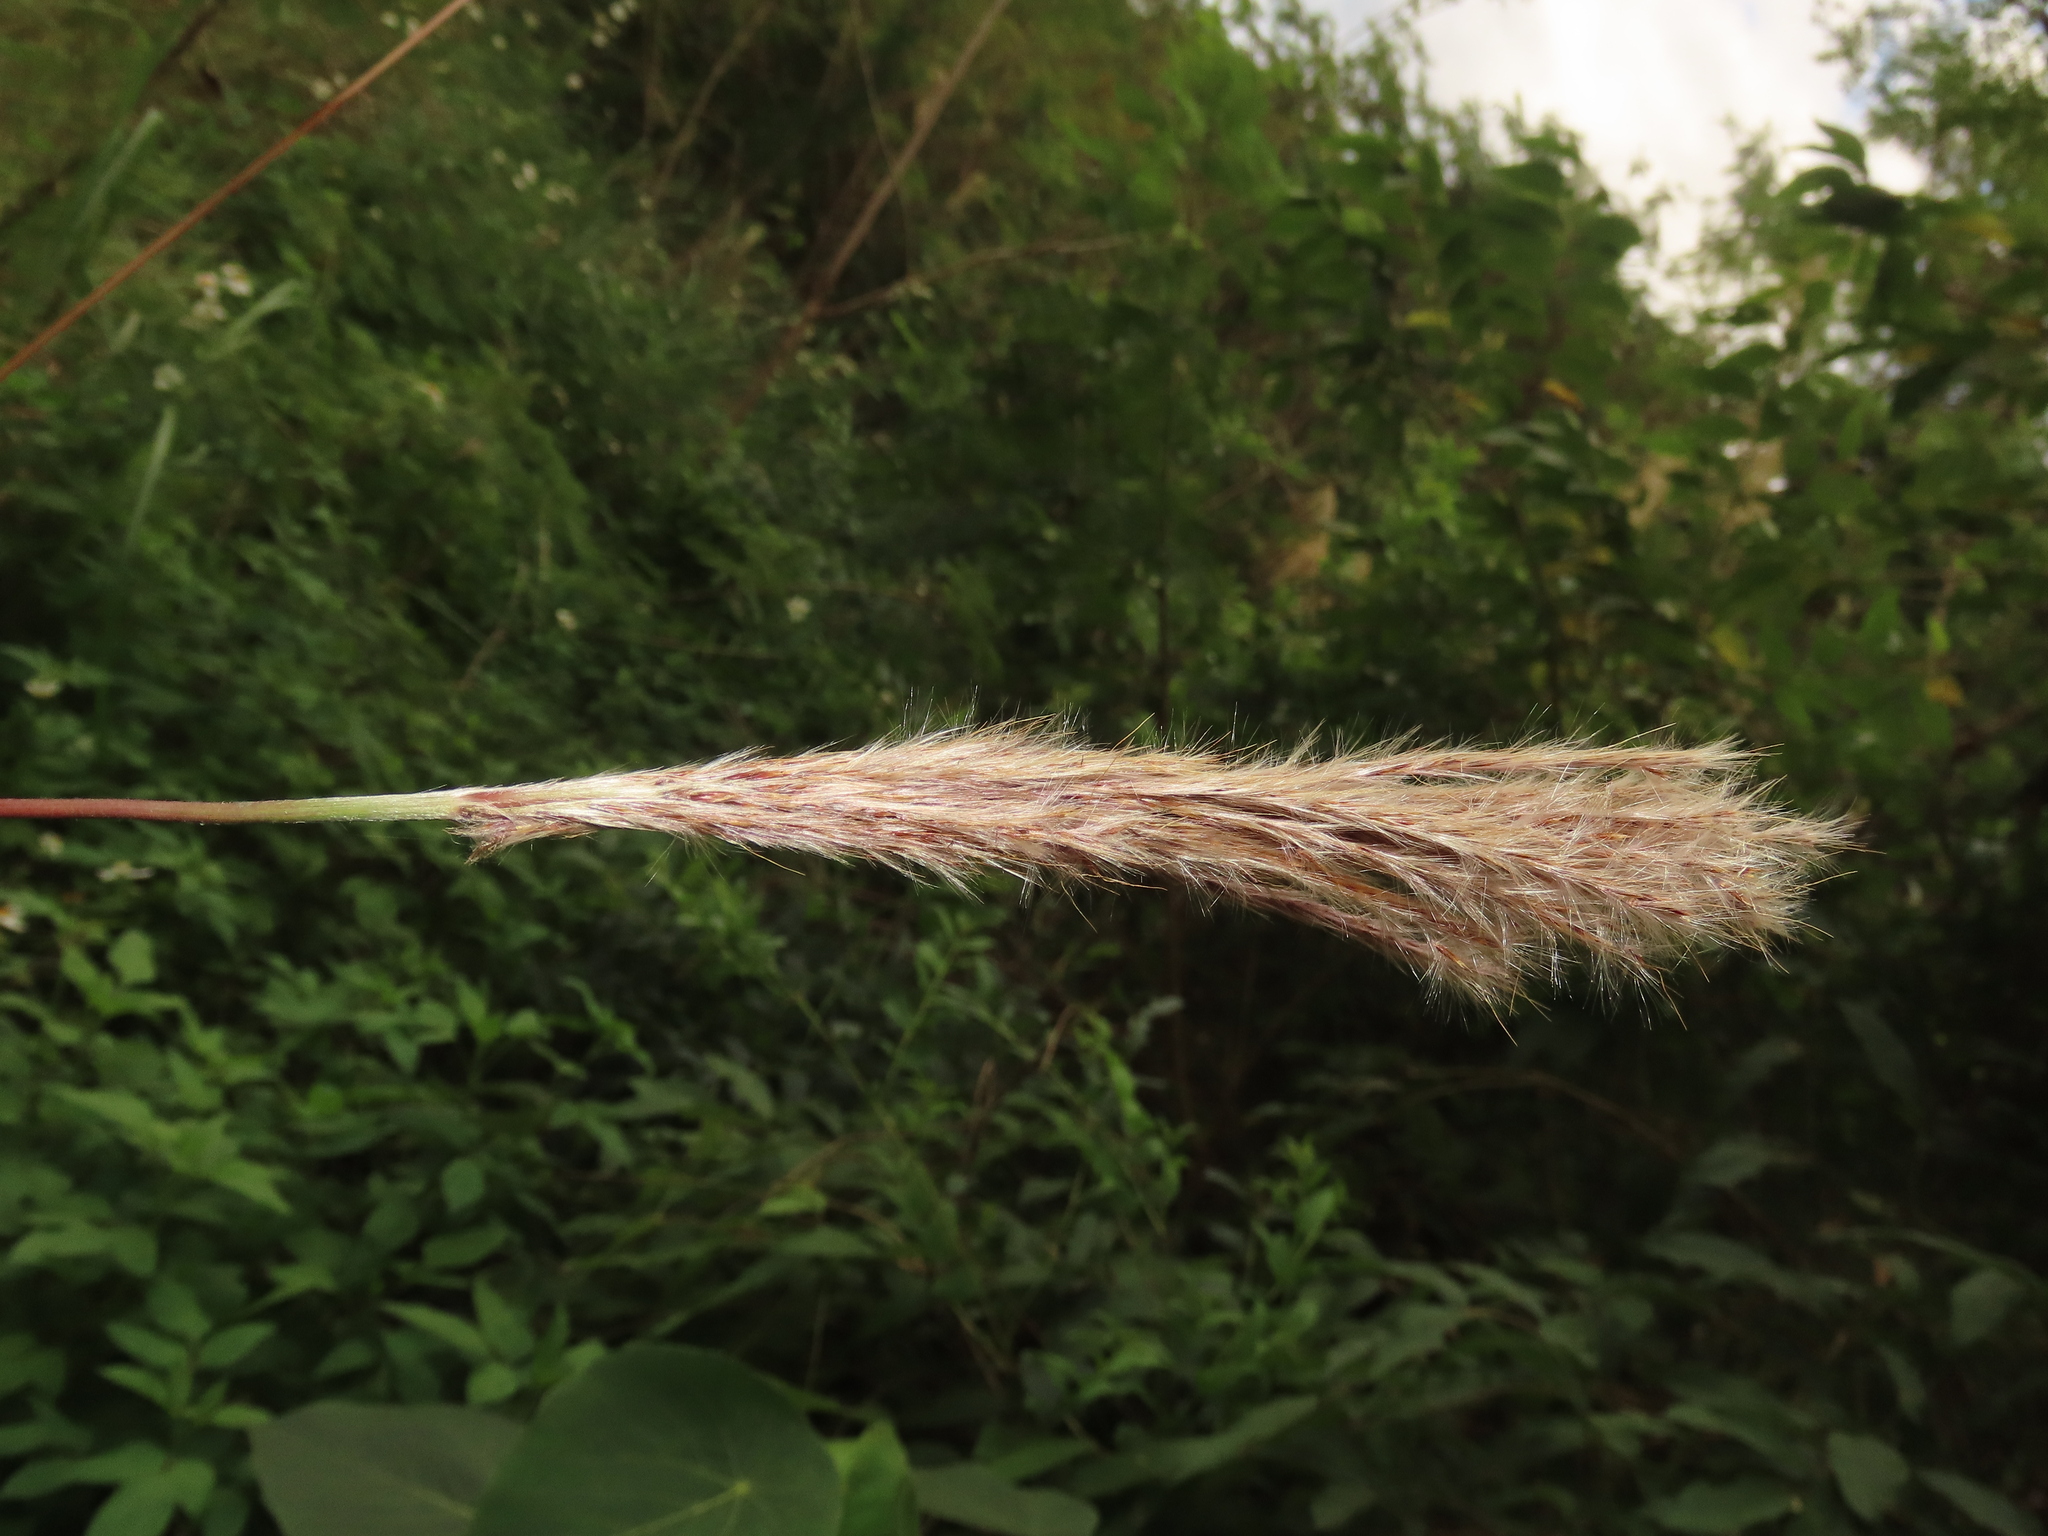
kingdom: Plantae
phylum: Tracheophyta
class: Liliopsida
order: Poales
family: Poaceae
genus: Saccharum
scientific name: Saccharum formosanum
